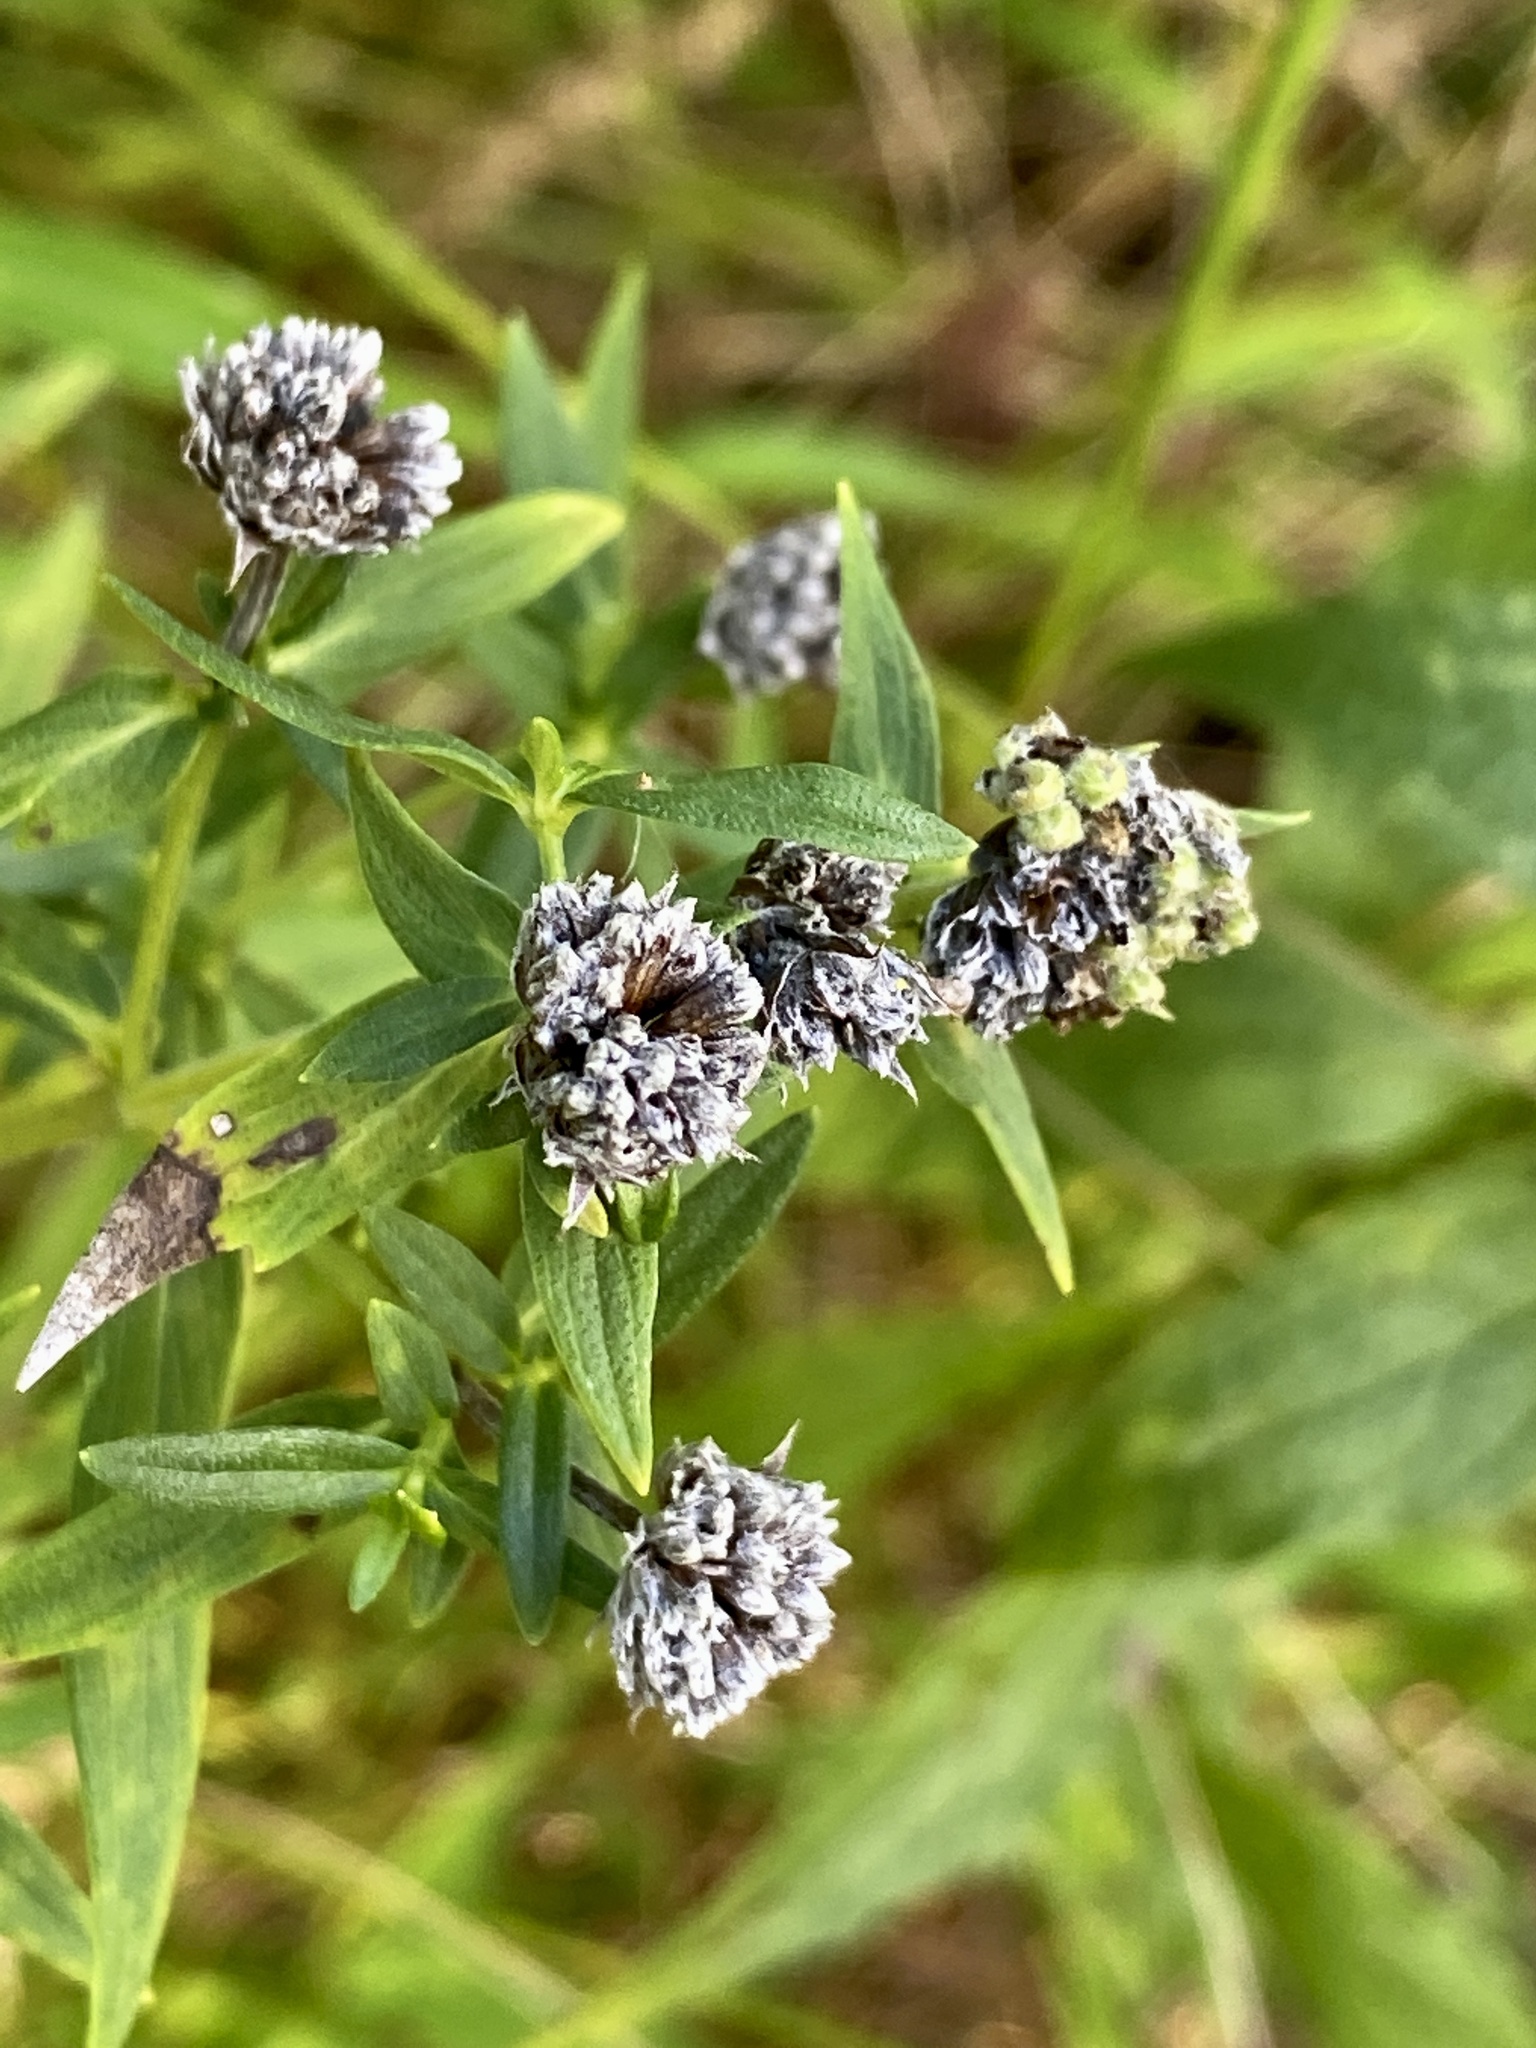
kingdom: Plantae
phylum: Tracheophyta
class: Magnoliopsida
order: Lamiales
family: Lamiaceae
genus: Pycnanthemum
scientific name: Pycnanthemum virginianum
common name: Virginia mountain-mint
